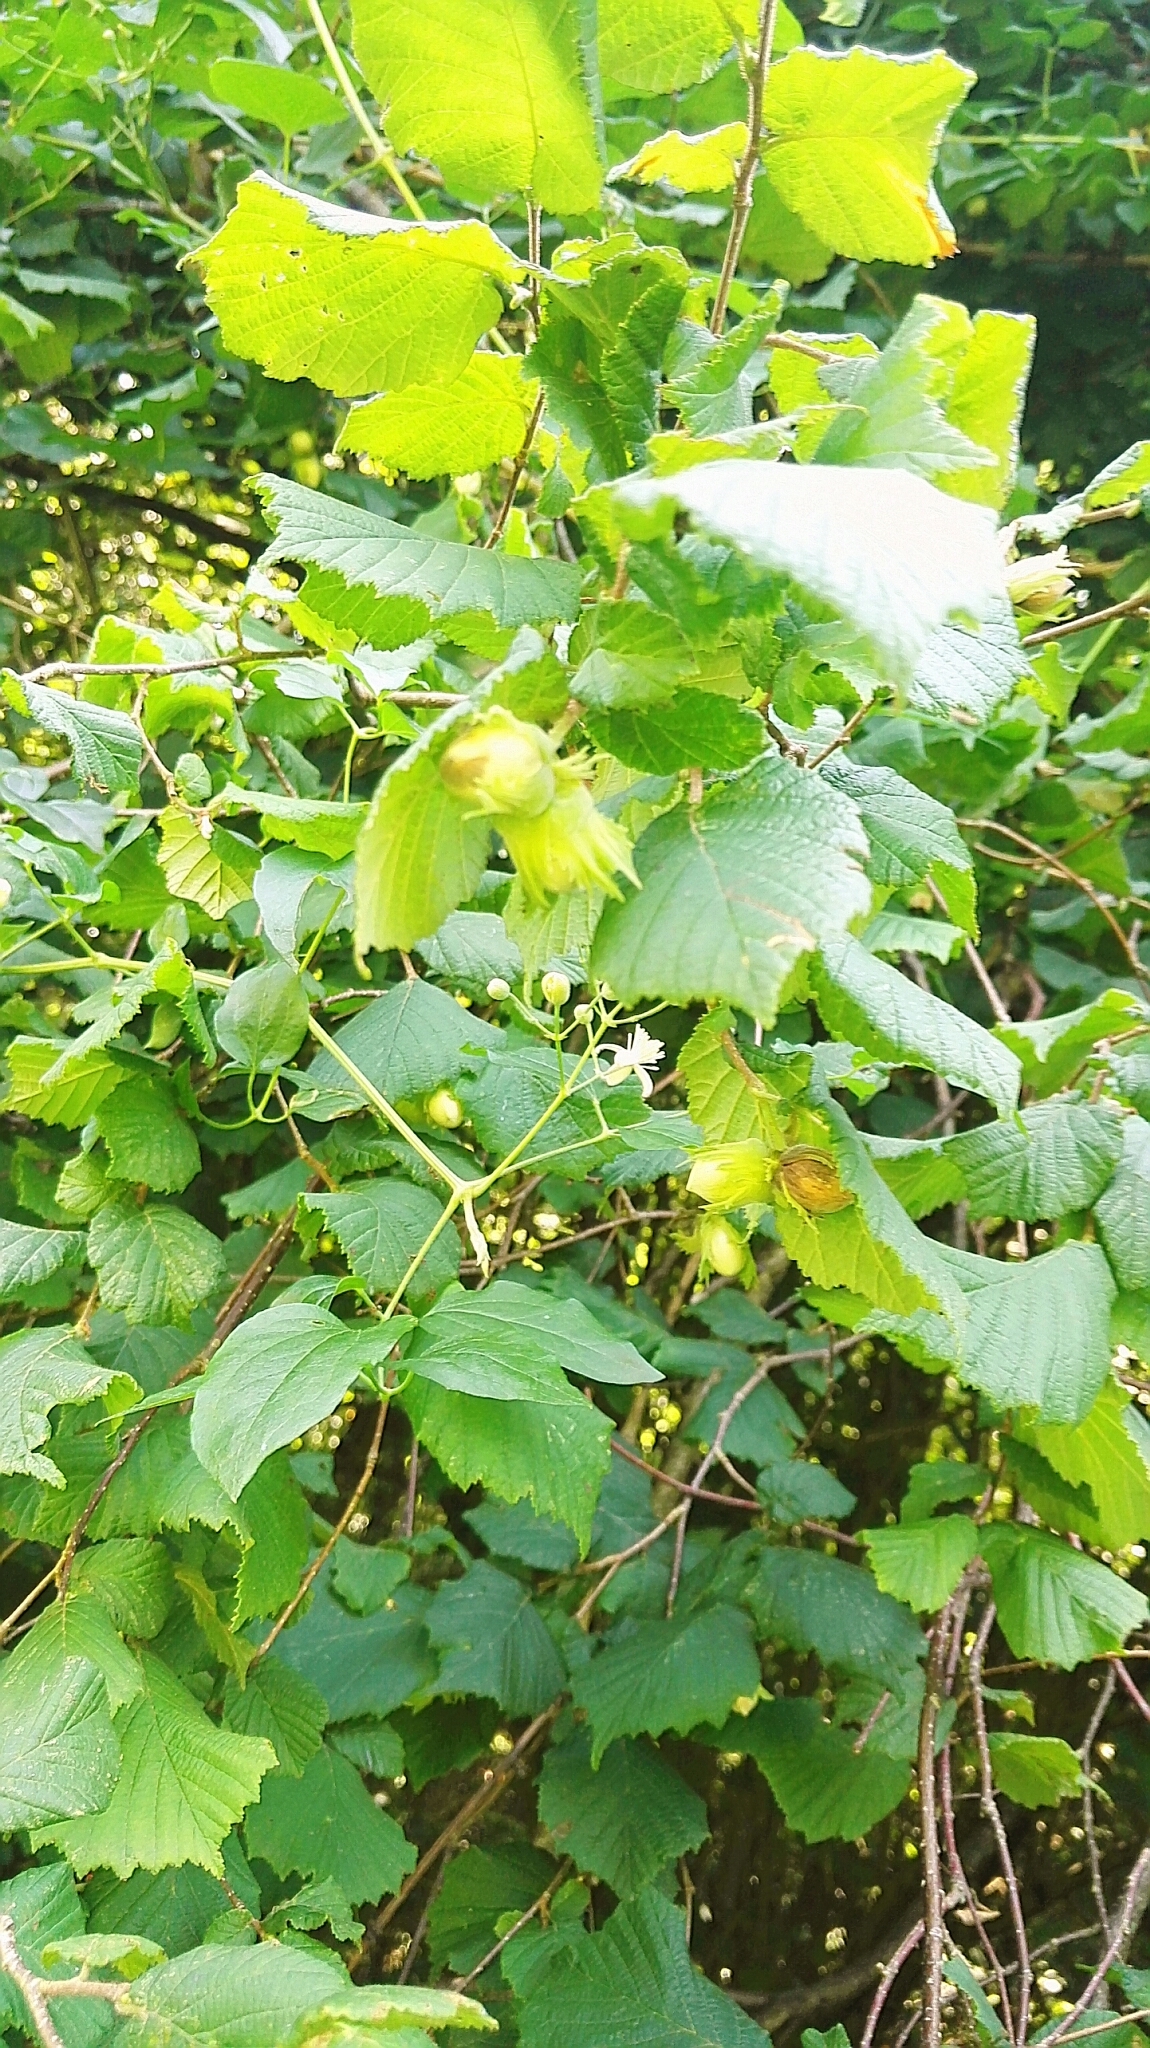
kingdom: Plantae
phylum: Tracheophyta
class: Magnoliopsida
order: Fagales
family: Betulaceae
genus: Corylus
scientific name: Corylus avellana
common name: European hazel
